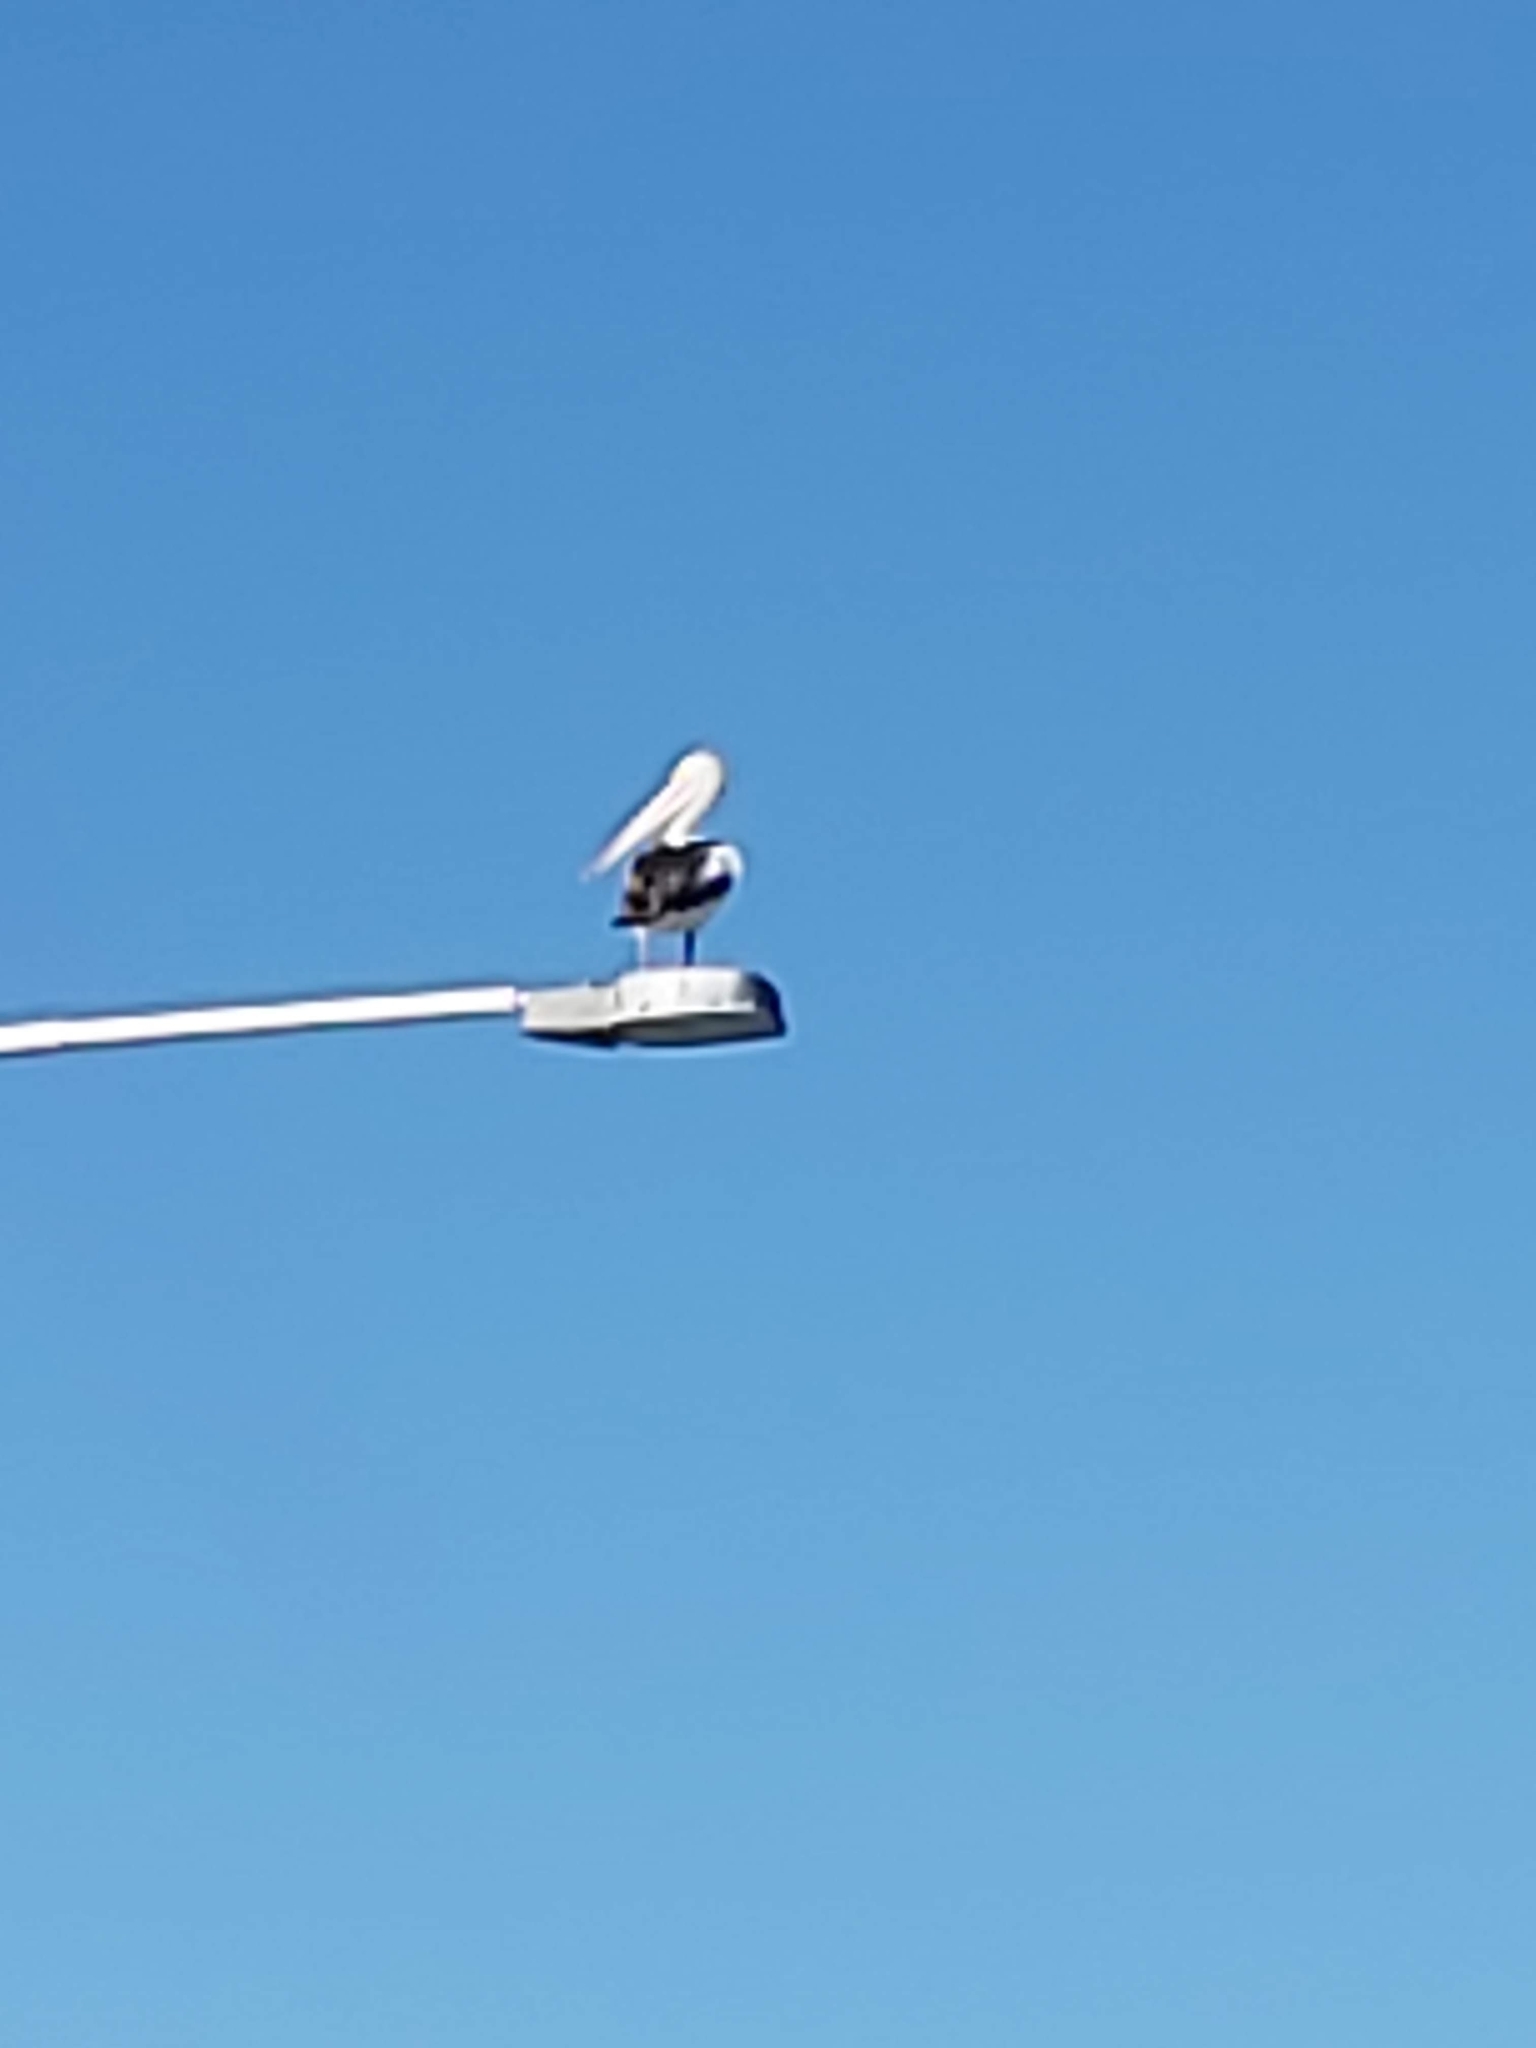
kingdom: Animalia
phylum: Chordata
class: Aves
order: Pelecaniformes
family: Pelecanidae
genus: Pelecanus
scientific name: Pelecanus conspicillatus
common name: Australian pelican
